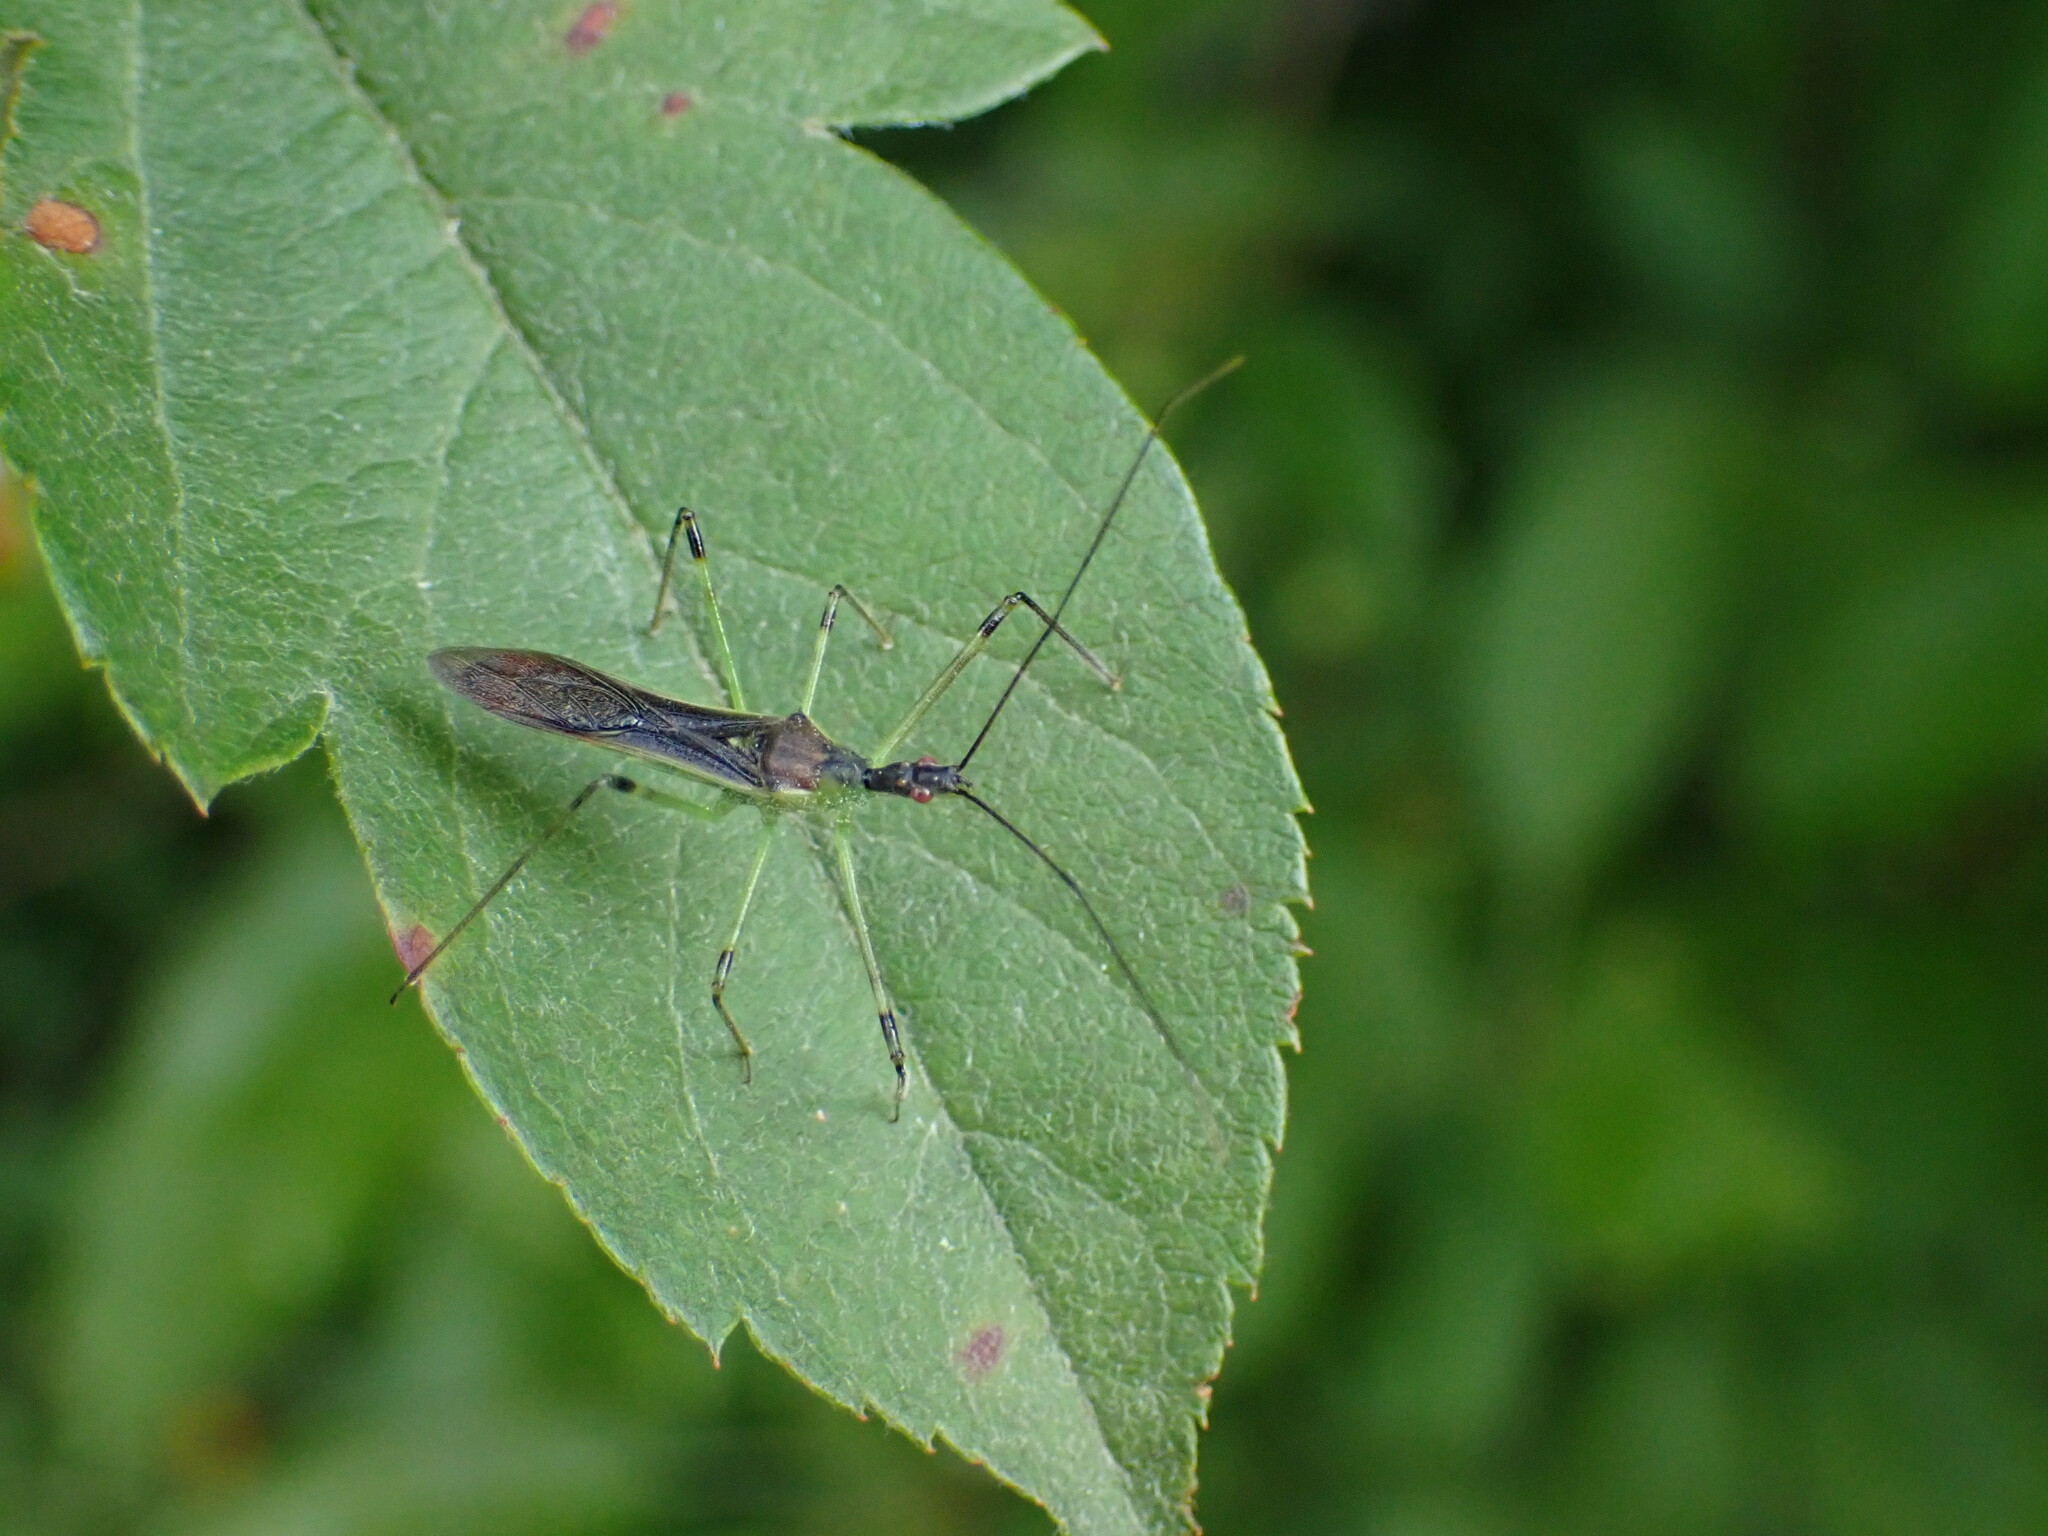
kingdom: Animalia
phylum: Arthropoda
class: Insecta
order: Hemiptera
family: Reduviidae
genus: Zelus
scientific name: Zelus luridus
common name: Pale green assassin bug
